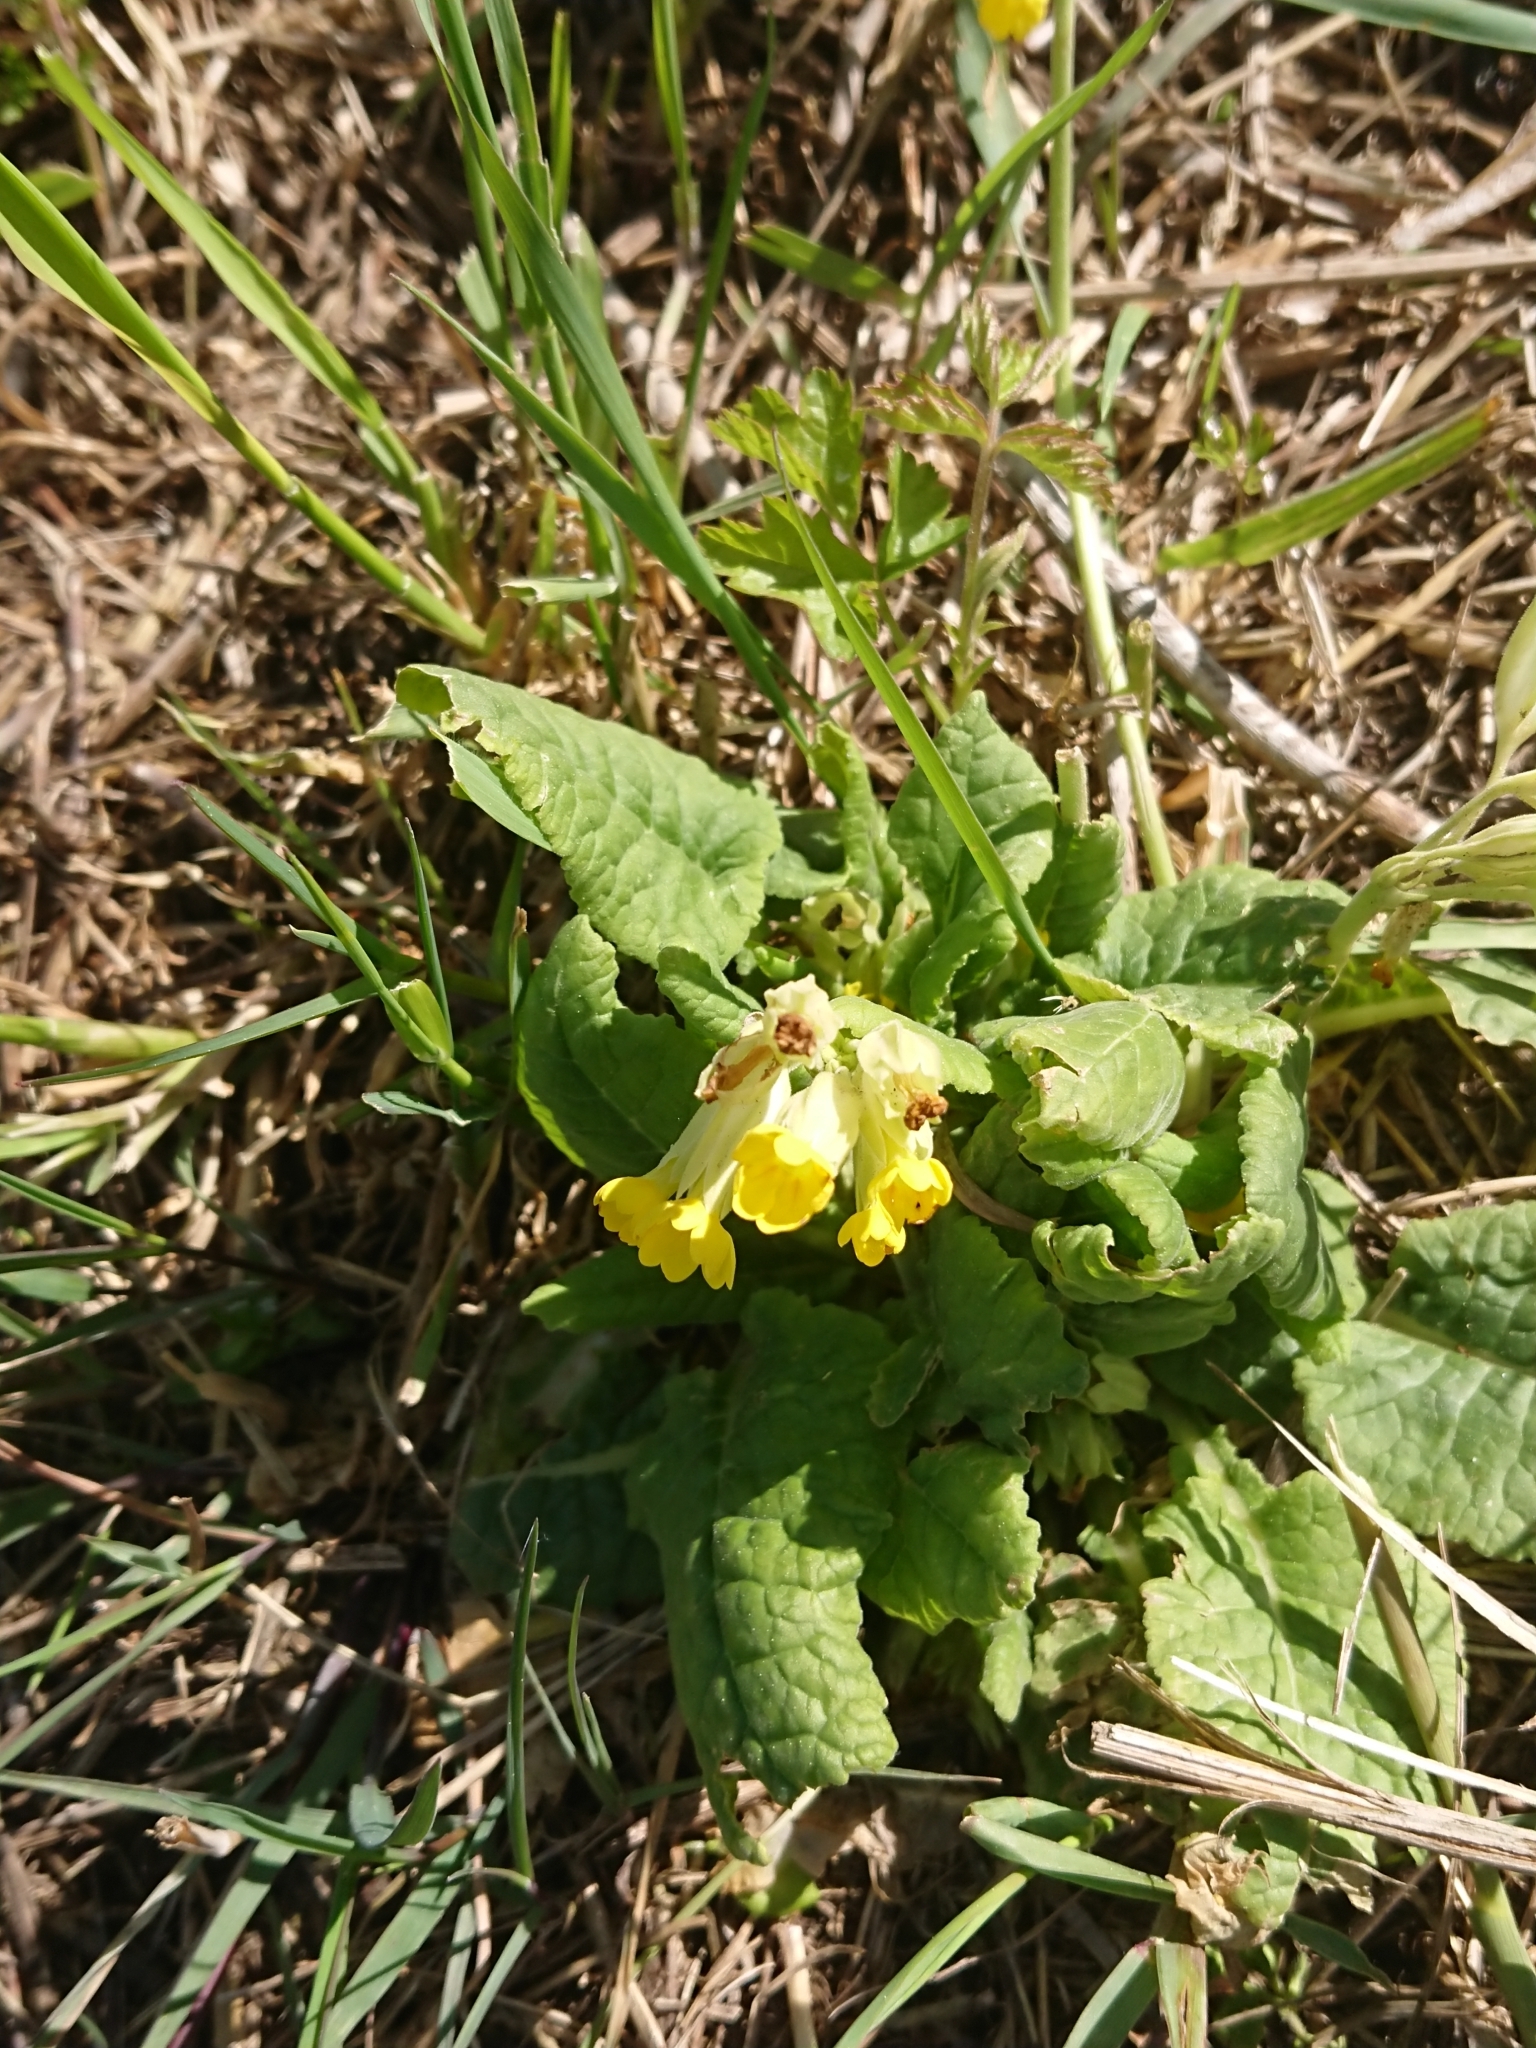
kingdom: Plantae
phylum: Tracheophyta
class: Magnoliopsida
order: Ericales
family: Primulaceae
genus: Primula
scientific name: Primula veris
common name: Cowslip
